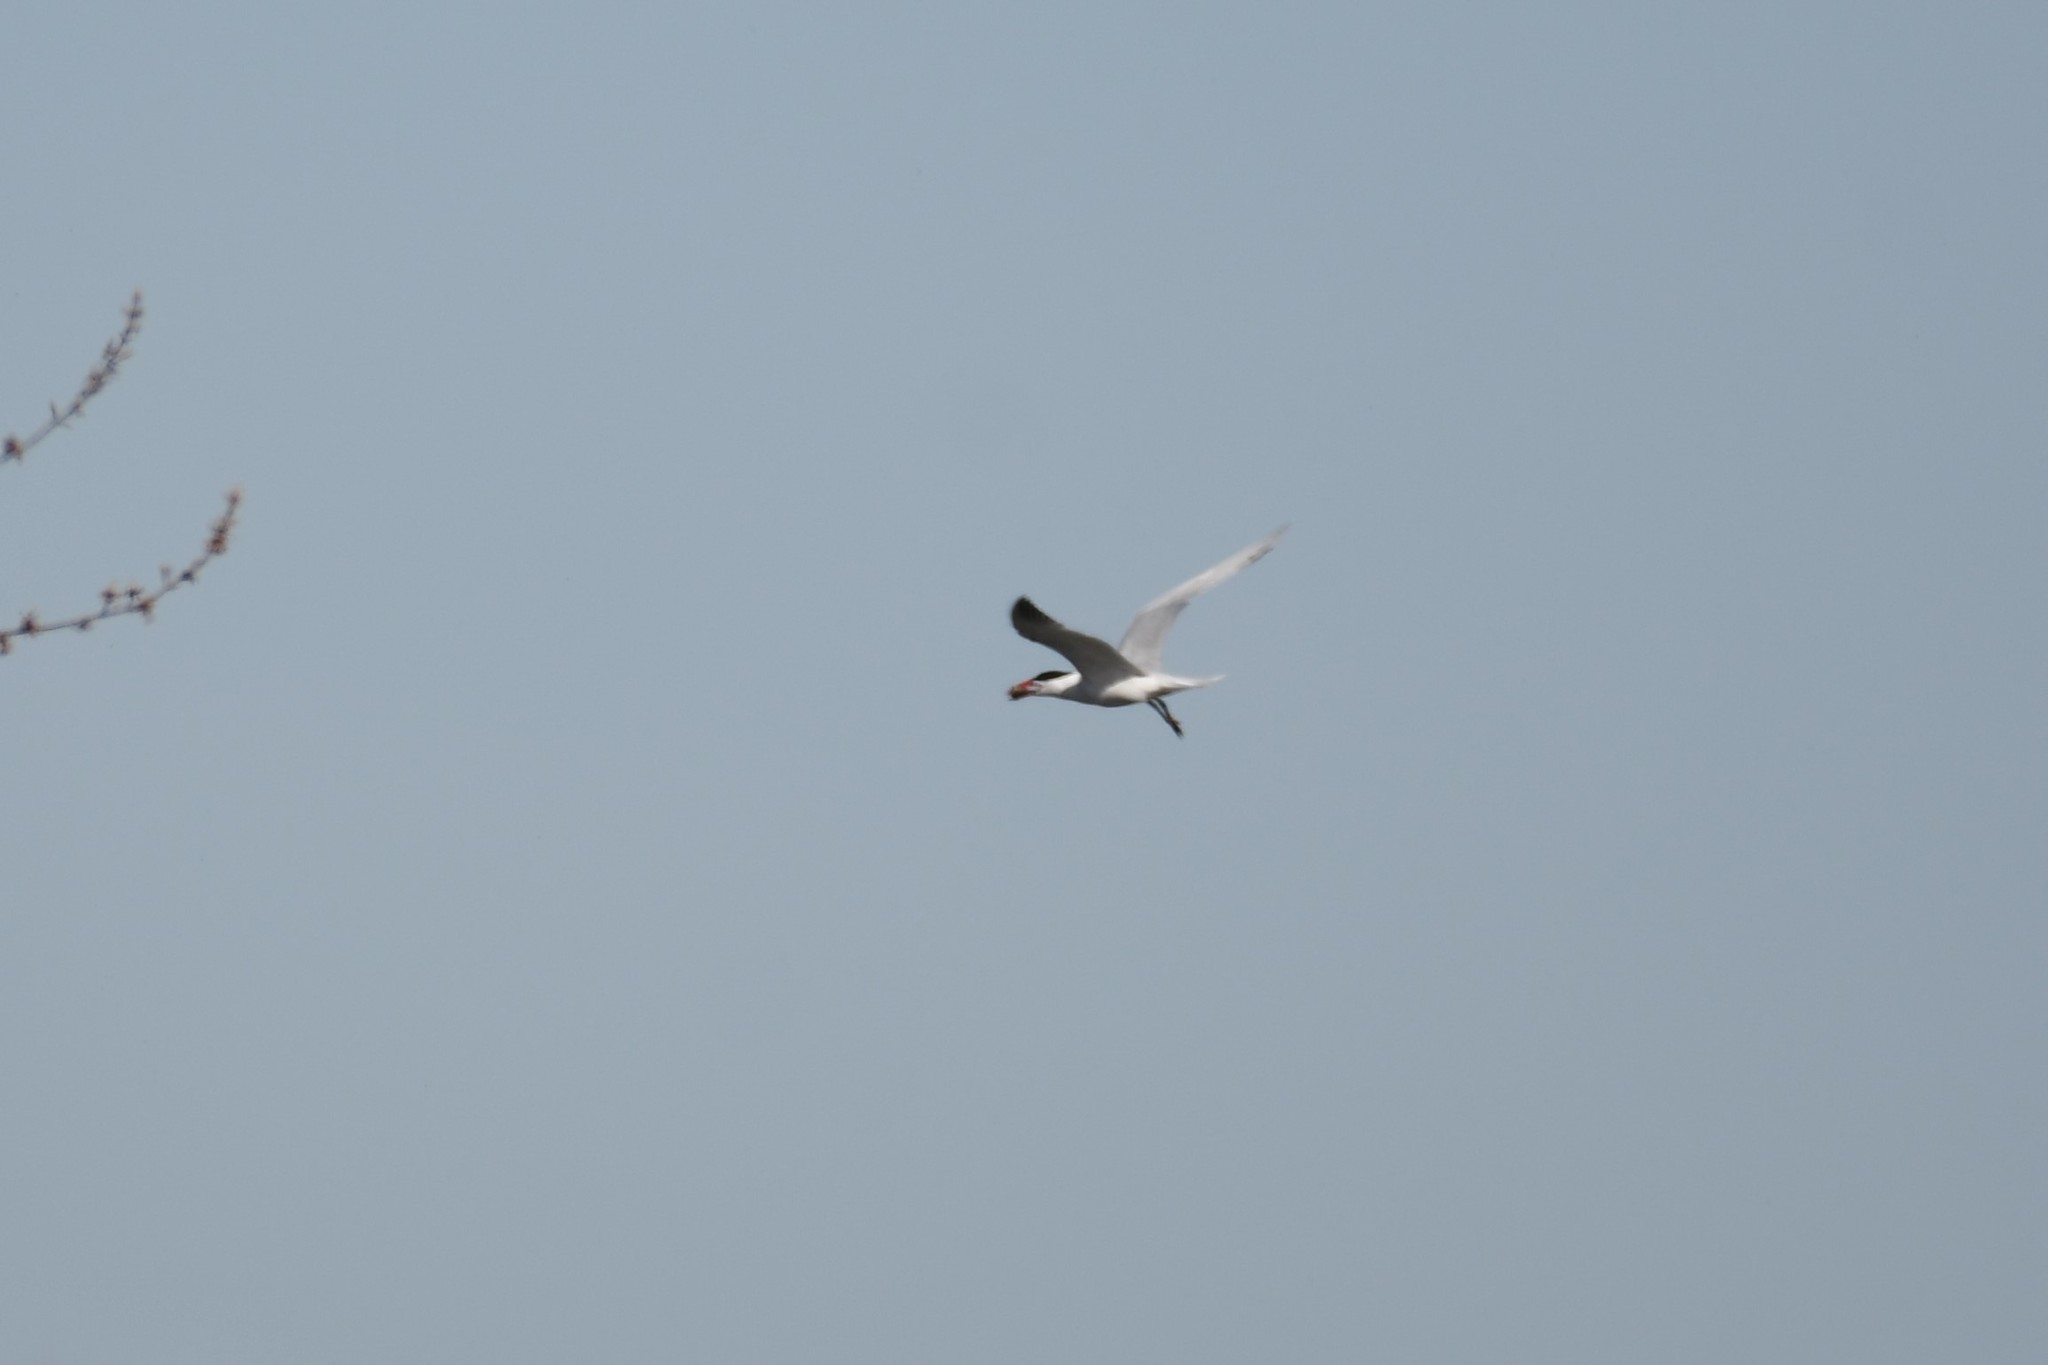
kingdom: Animalia
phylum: Chordata
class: Aves
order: Charadriiformes
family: Laridae
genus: Hydroprogne
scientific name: Hydroprogne caspia
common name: Caspian tern
